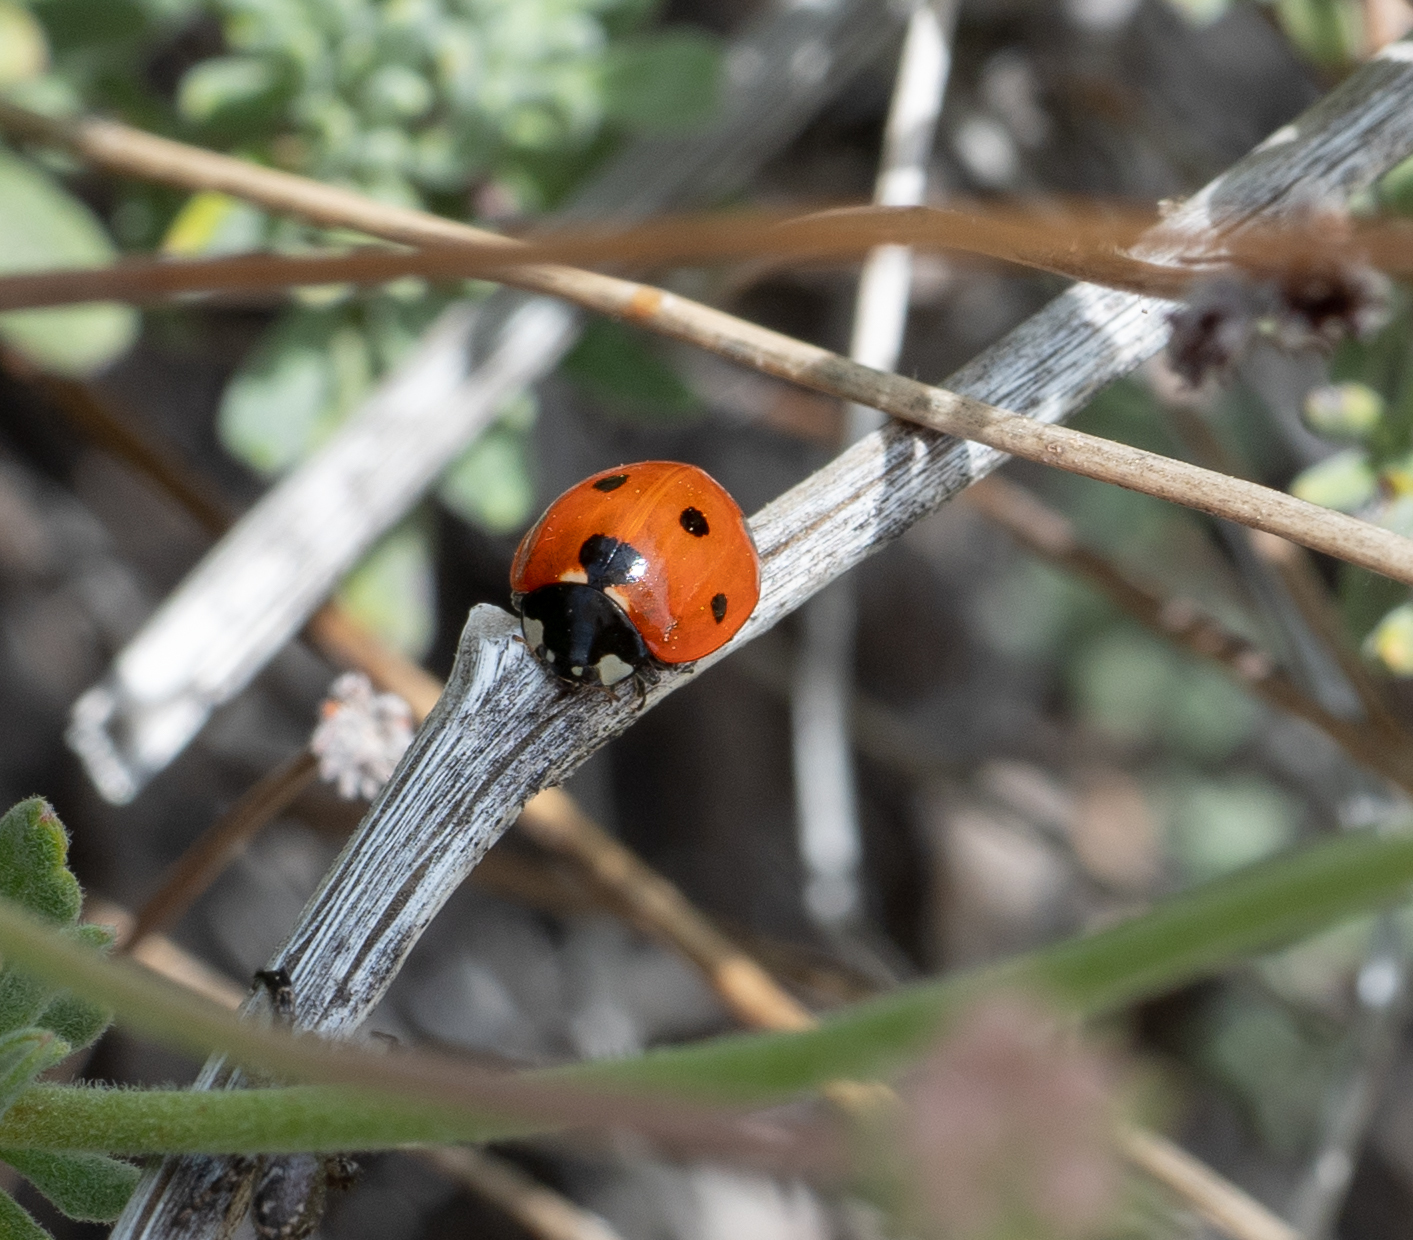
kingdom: Animalia
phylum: Arthropoda
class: Insecta
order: Coleoptera
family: Coccinellidae
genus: Coccinella
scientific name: Coccinella septempunctata
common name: Sevenspotted lady beetle
